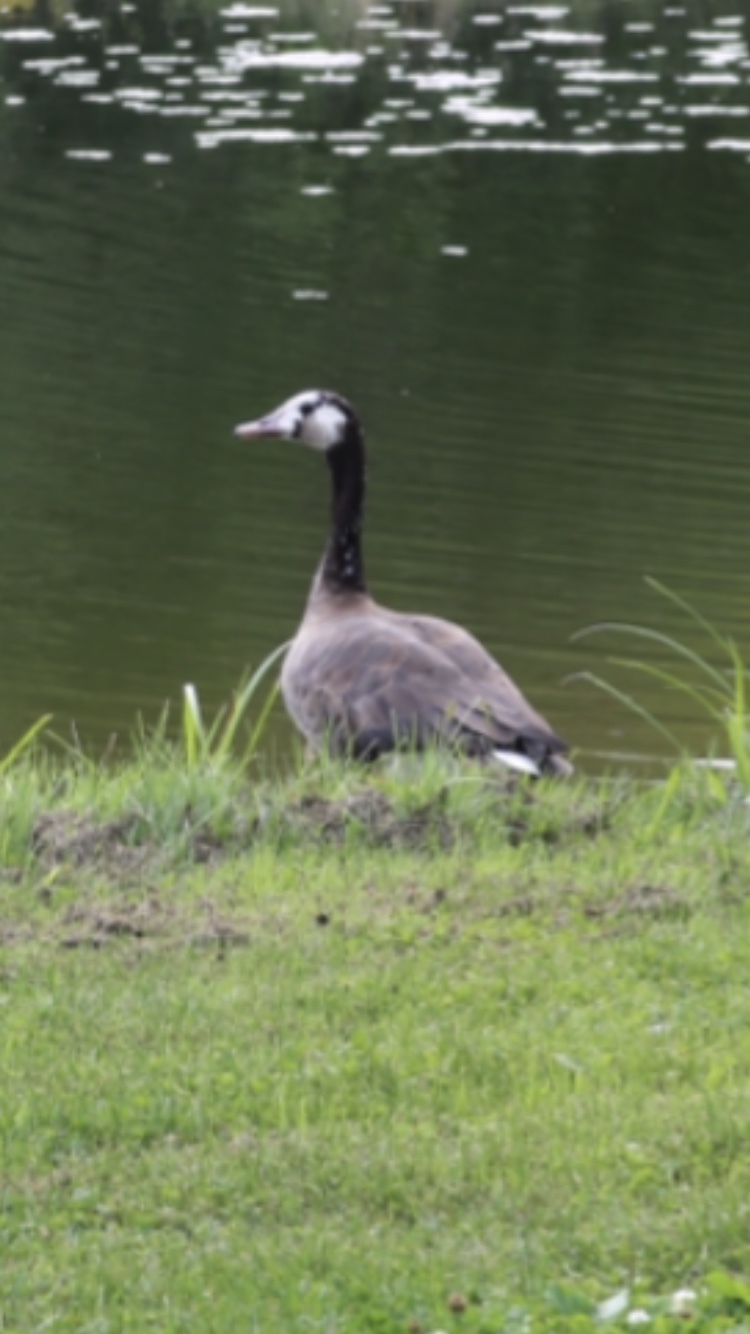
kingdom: Animalia
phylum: Chordata
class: Aves
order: Anseriformes
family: Anatidae
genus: Branta
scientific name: Branta canadensis
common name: Canada goose
